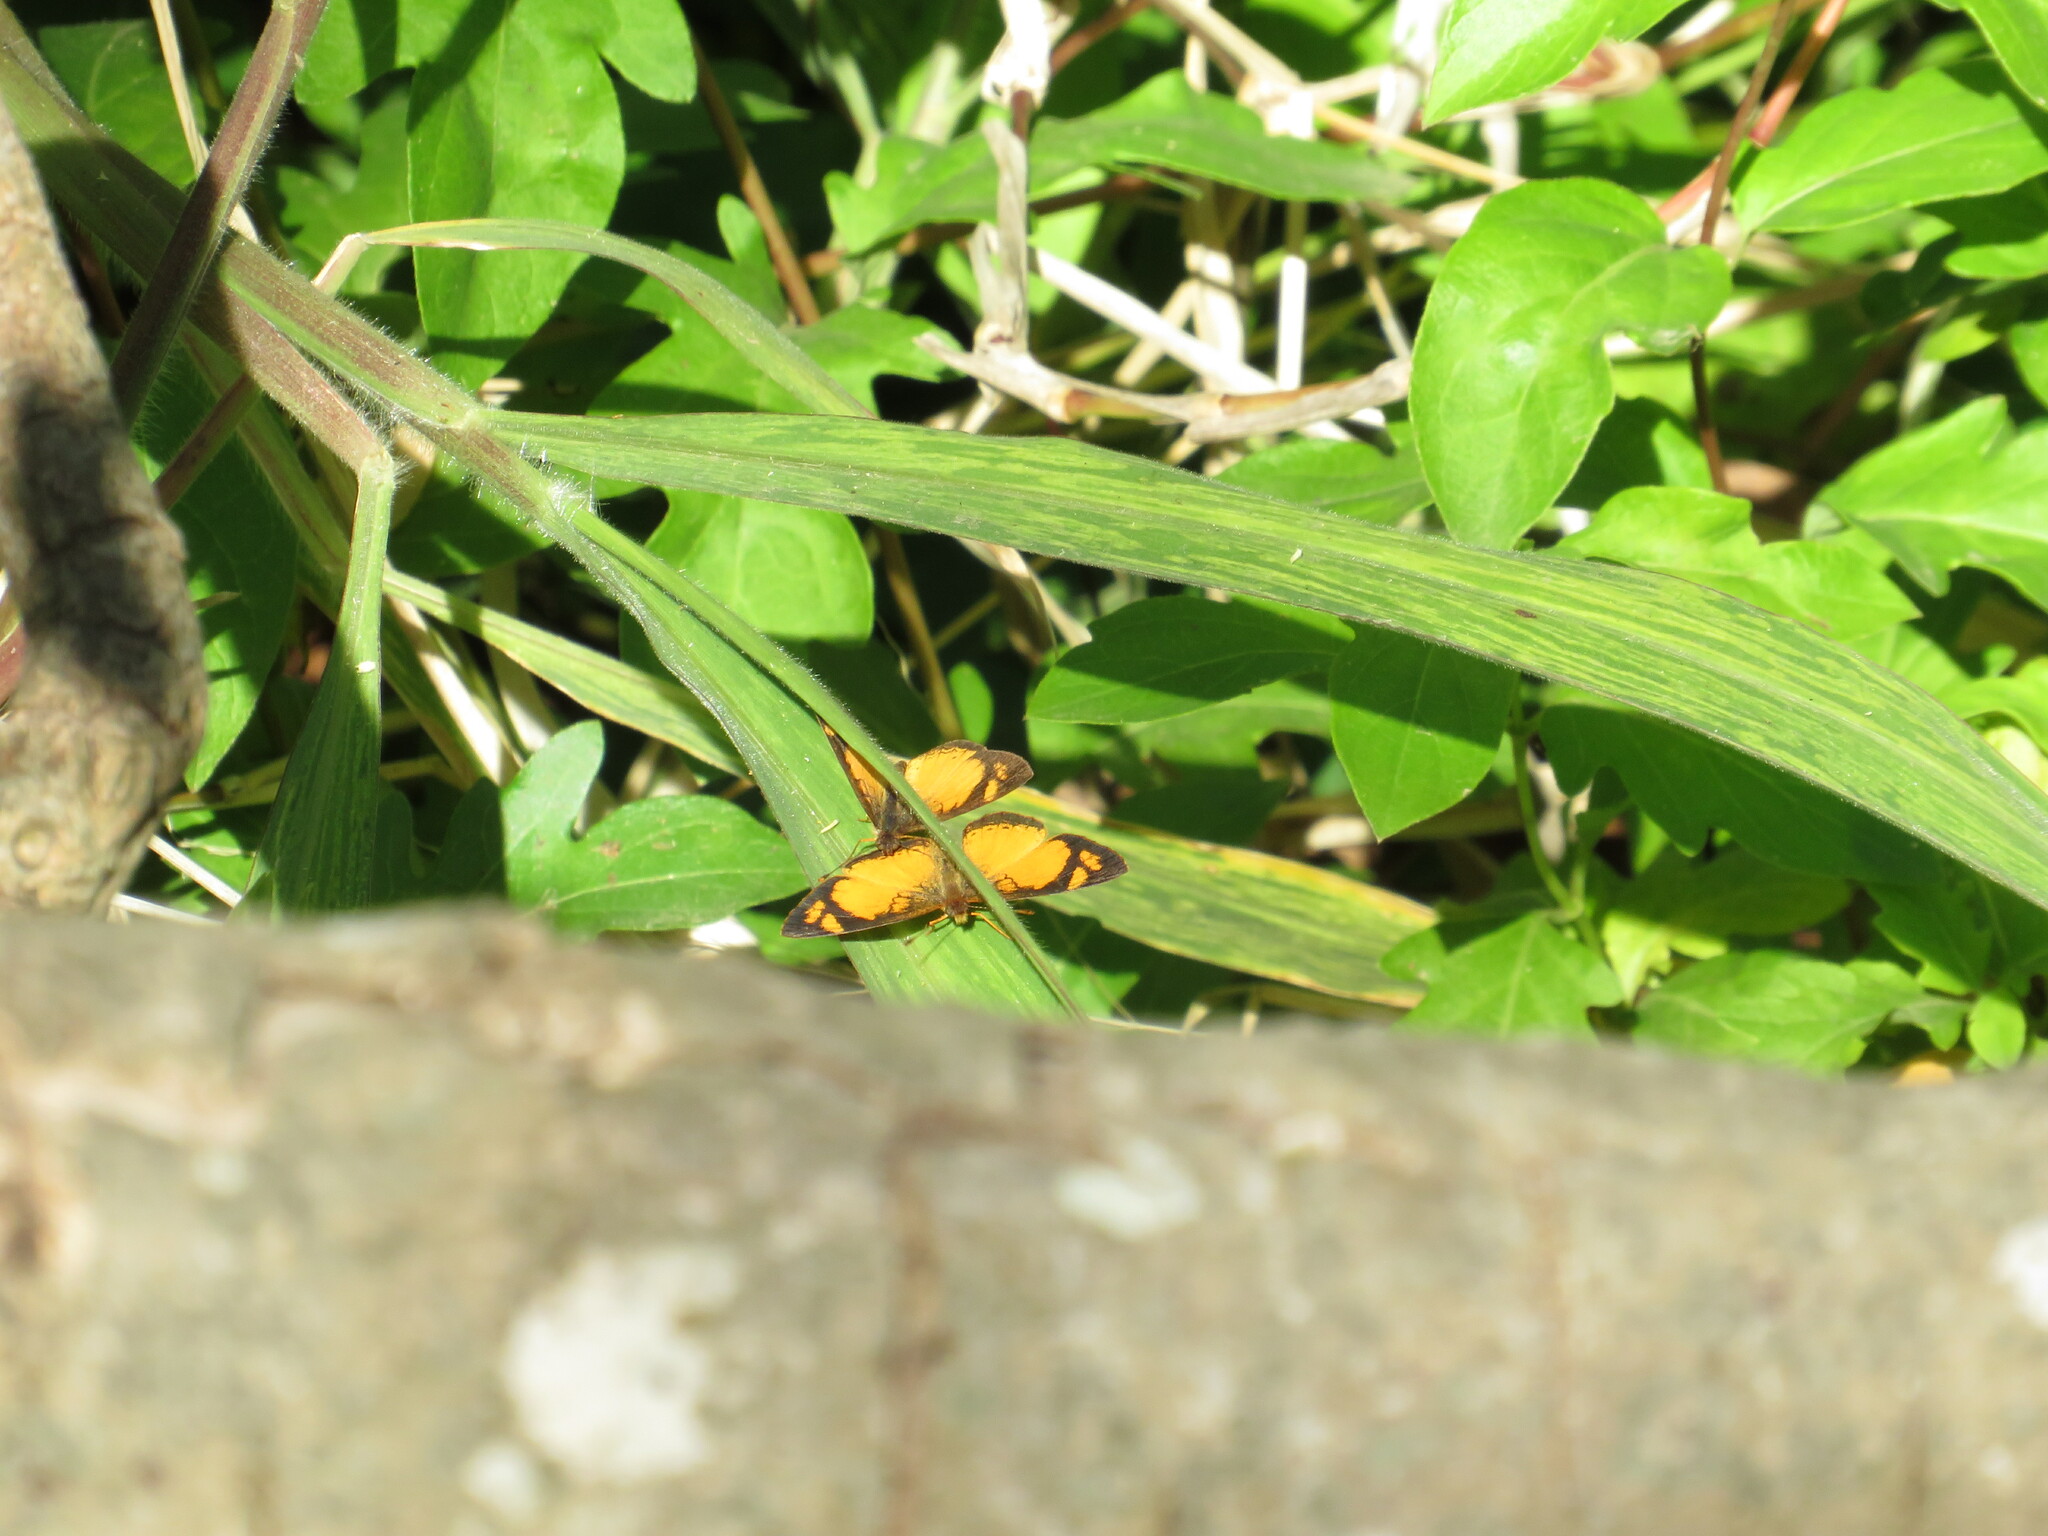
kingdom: Animalia
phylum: Arthropoda
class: Insecta
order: Lepidoptera
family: Nymphalidae
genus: Tegosa
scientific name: Tegosa claudina
